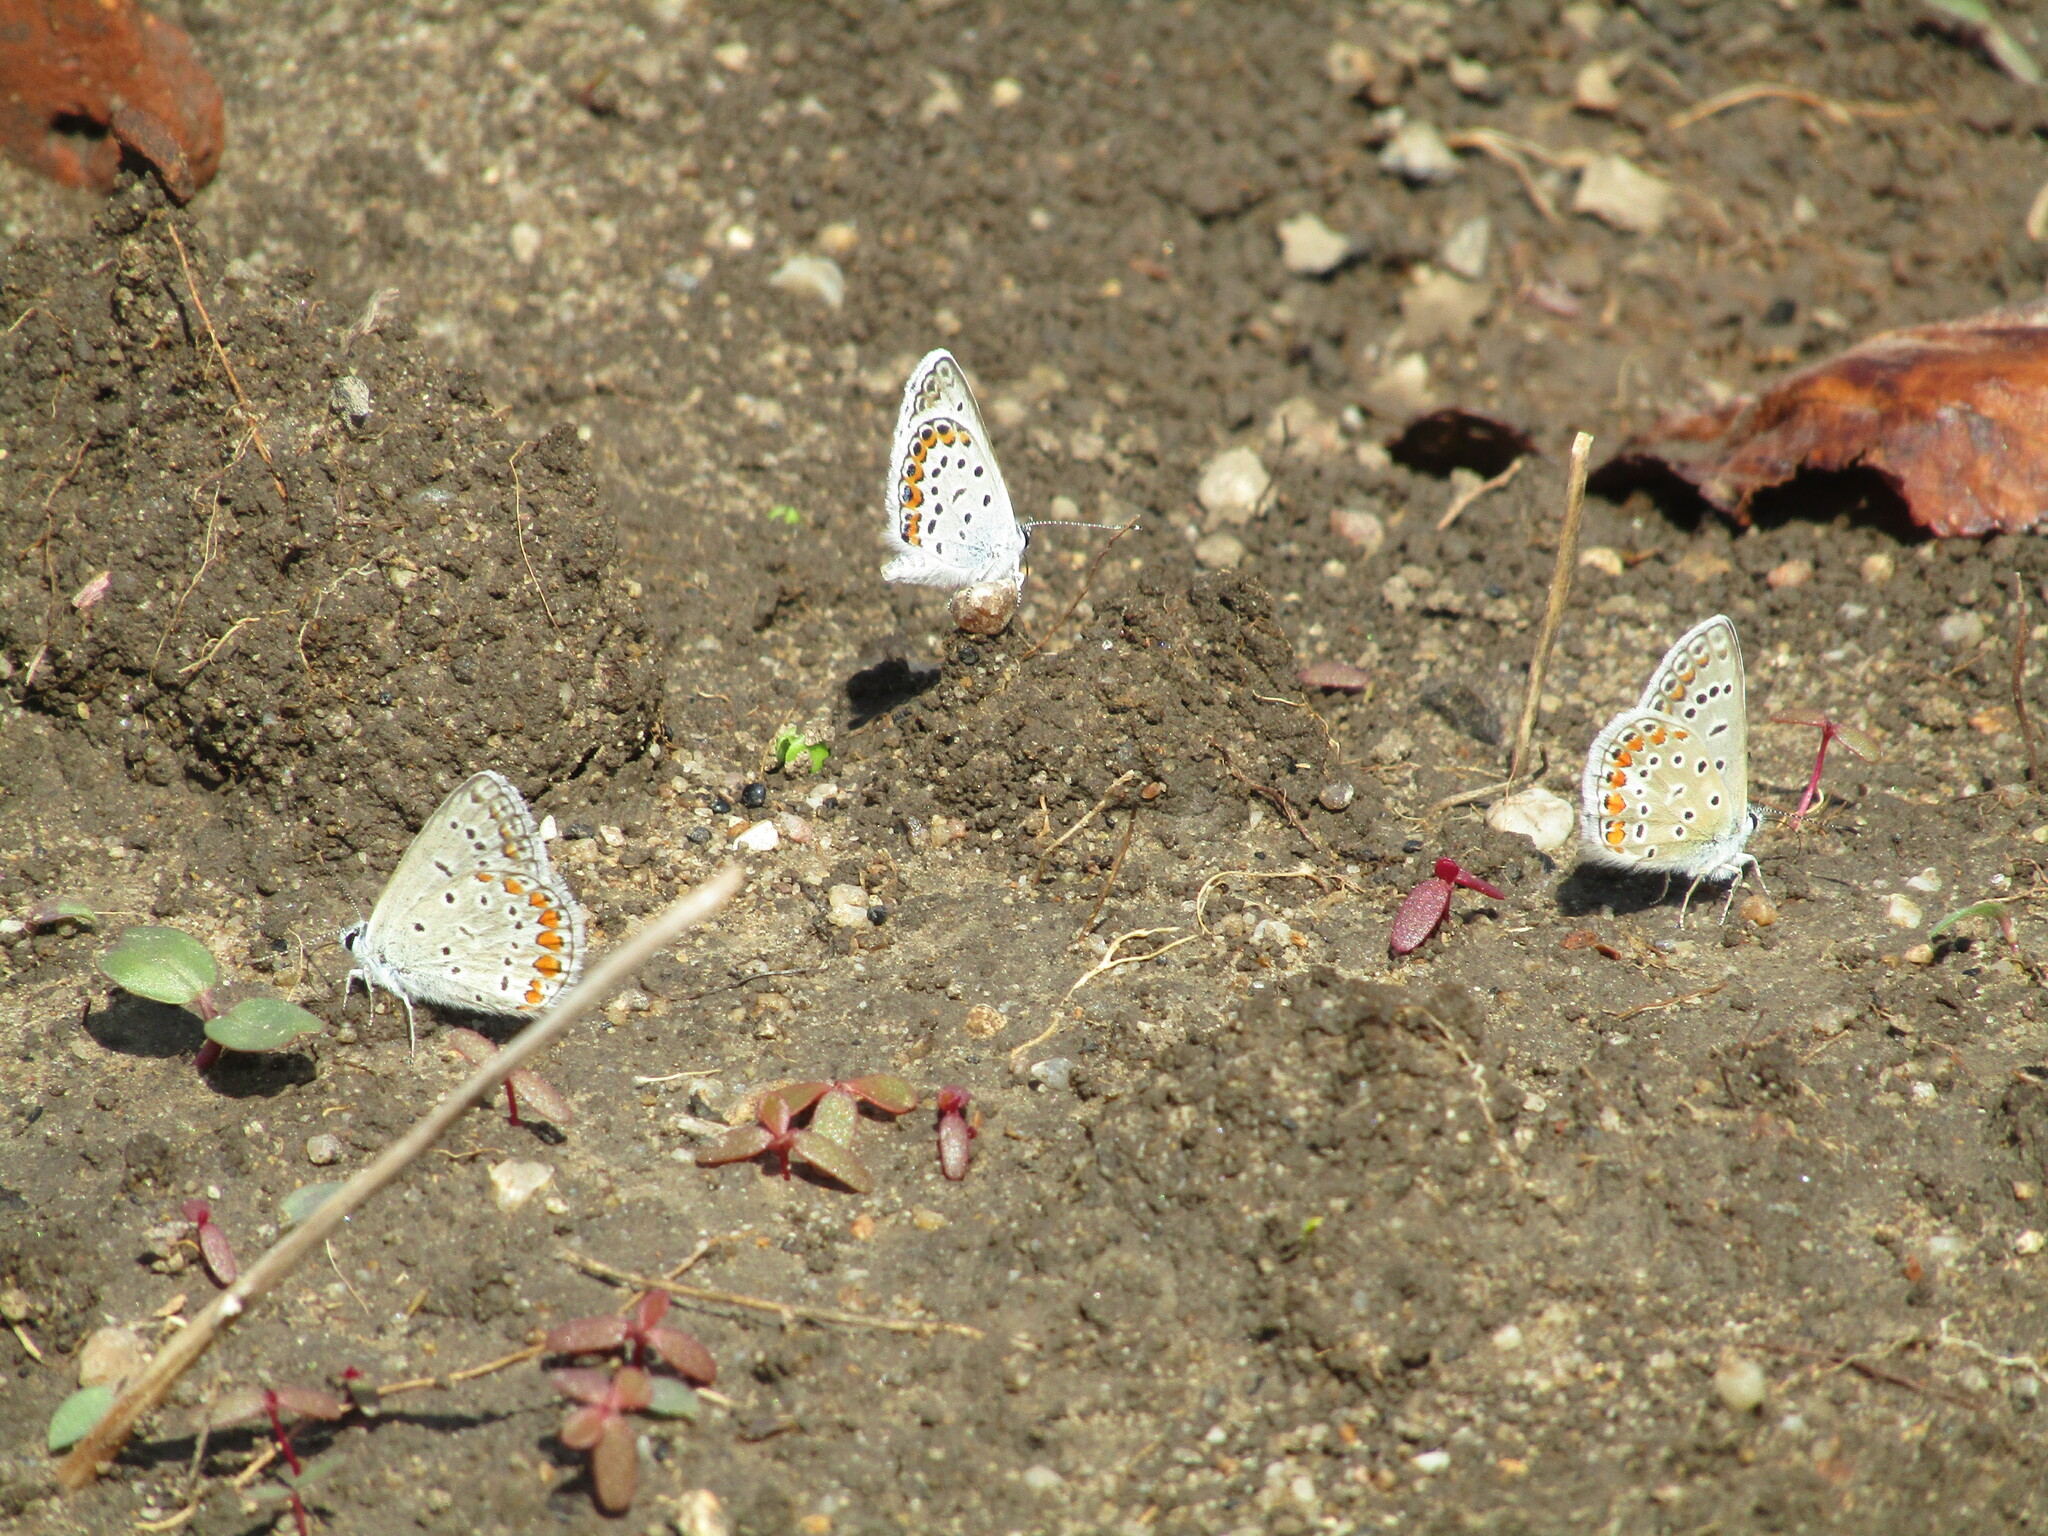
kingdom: Animalia
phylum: Arthropoda
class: Insecta
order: Lepidoptera
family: Lycaenidae
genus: Plebejus
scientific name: Plebejus argus
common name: Silver-studded blue
